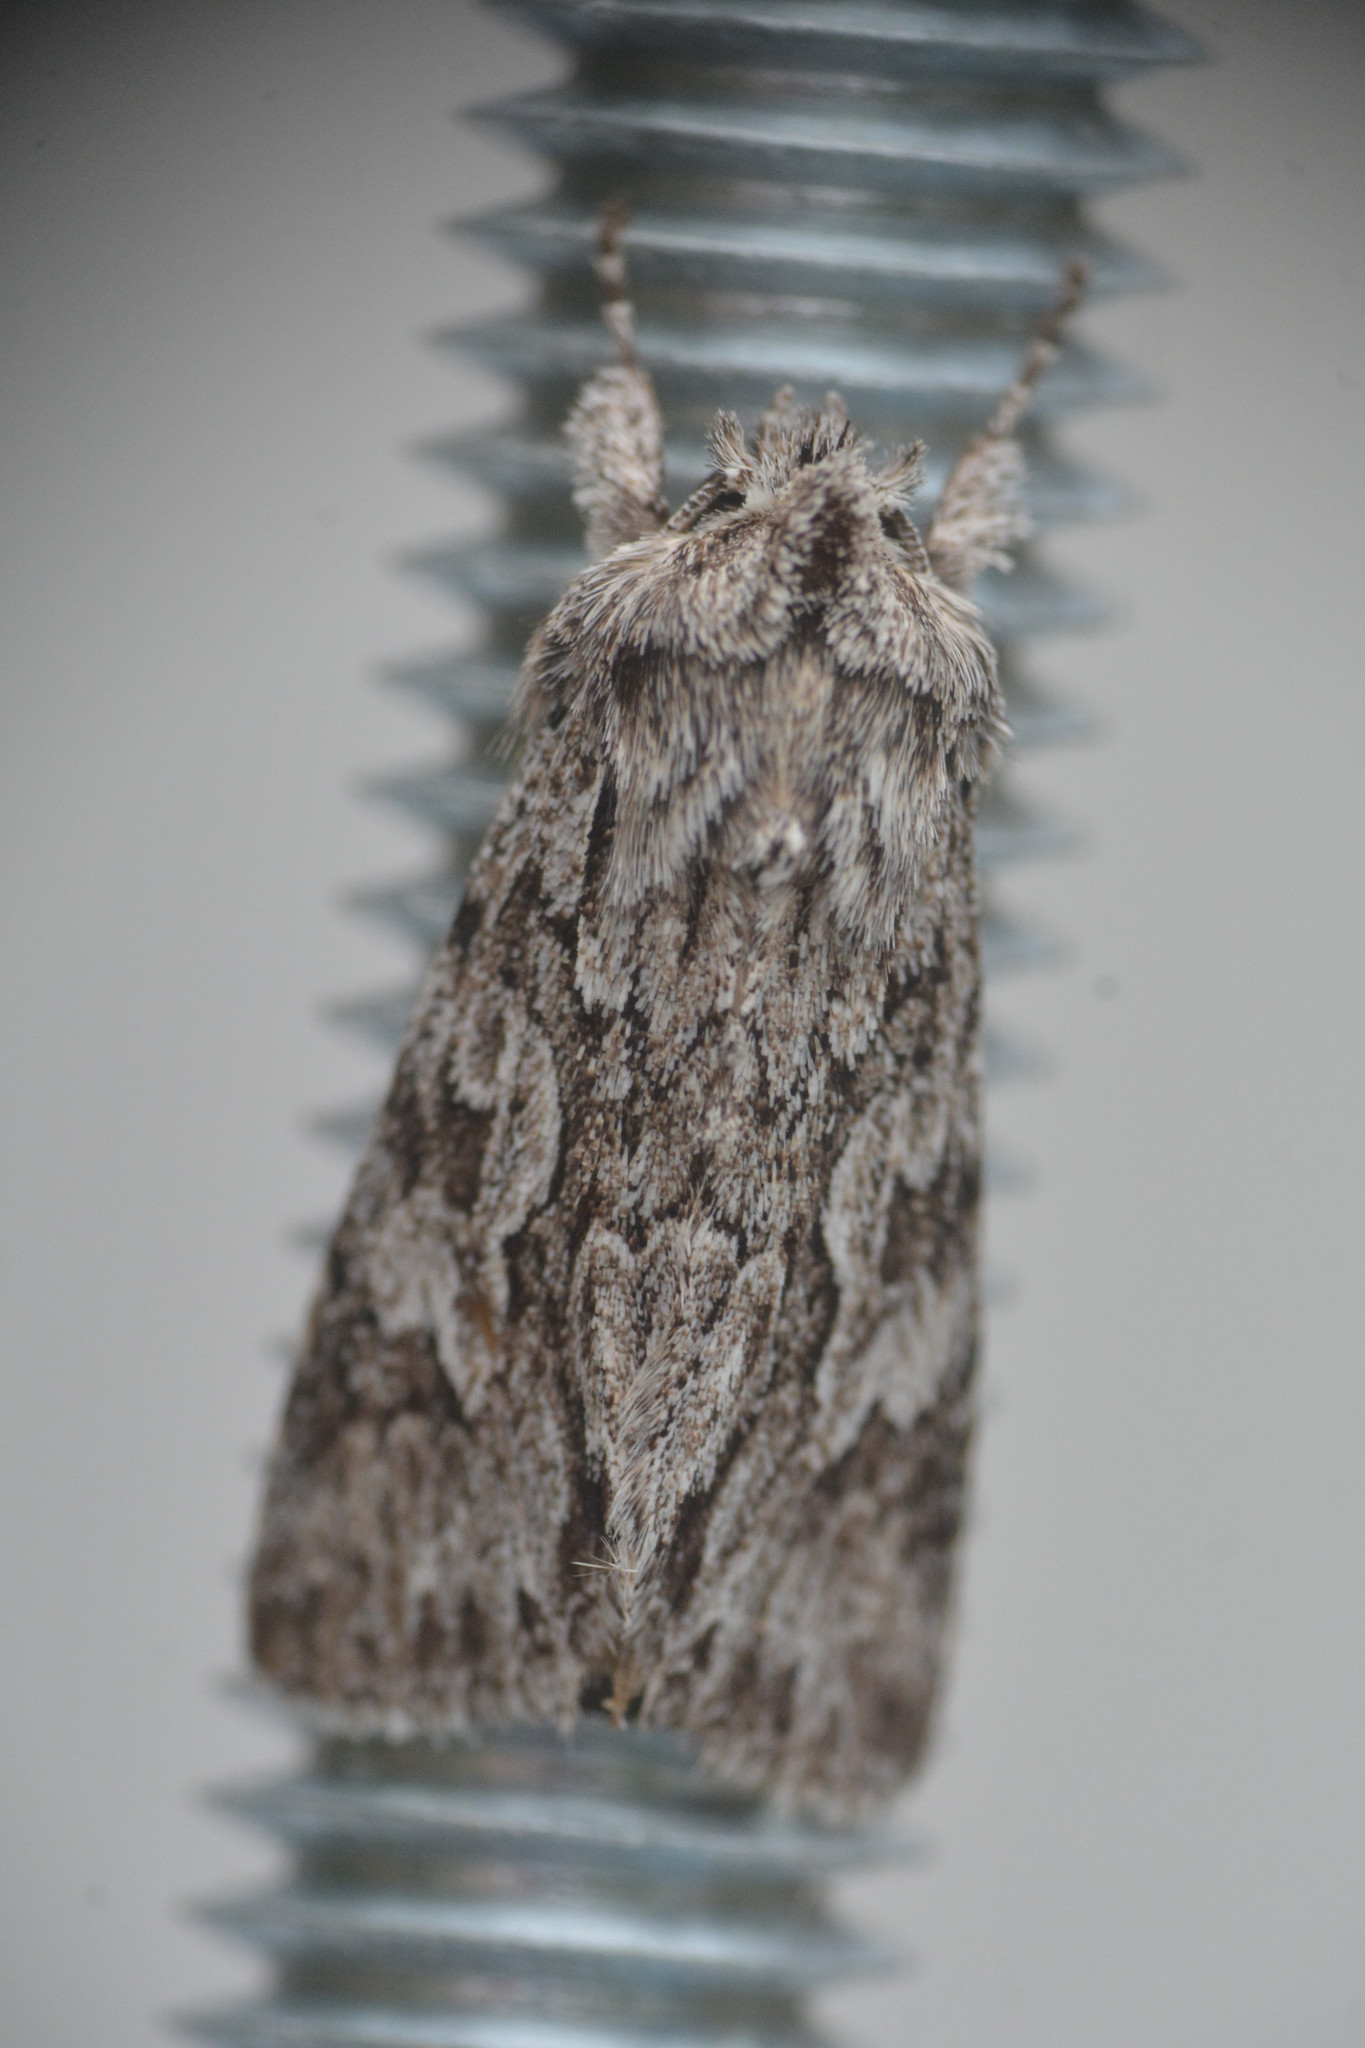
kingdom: Animalia
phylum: Arthropoda
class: Insecta
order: Lepidoptera
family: Noctuidae
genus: Xylocampa
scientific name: Xylocampa areola
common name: Early grey
